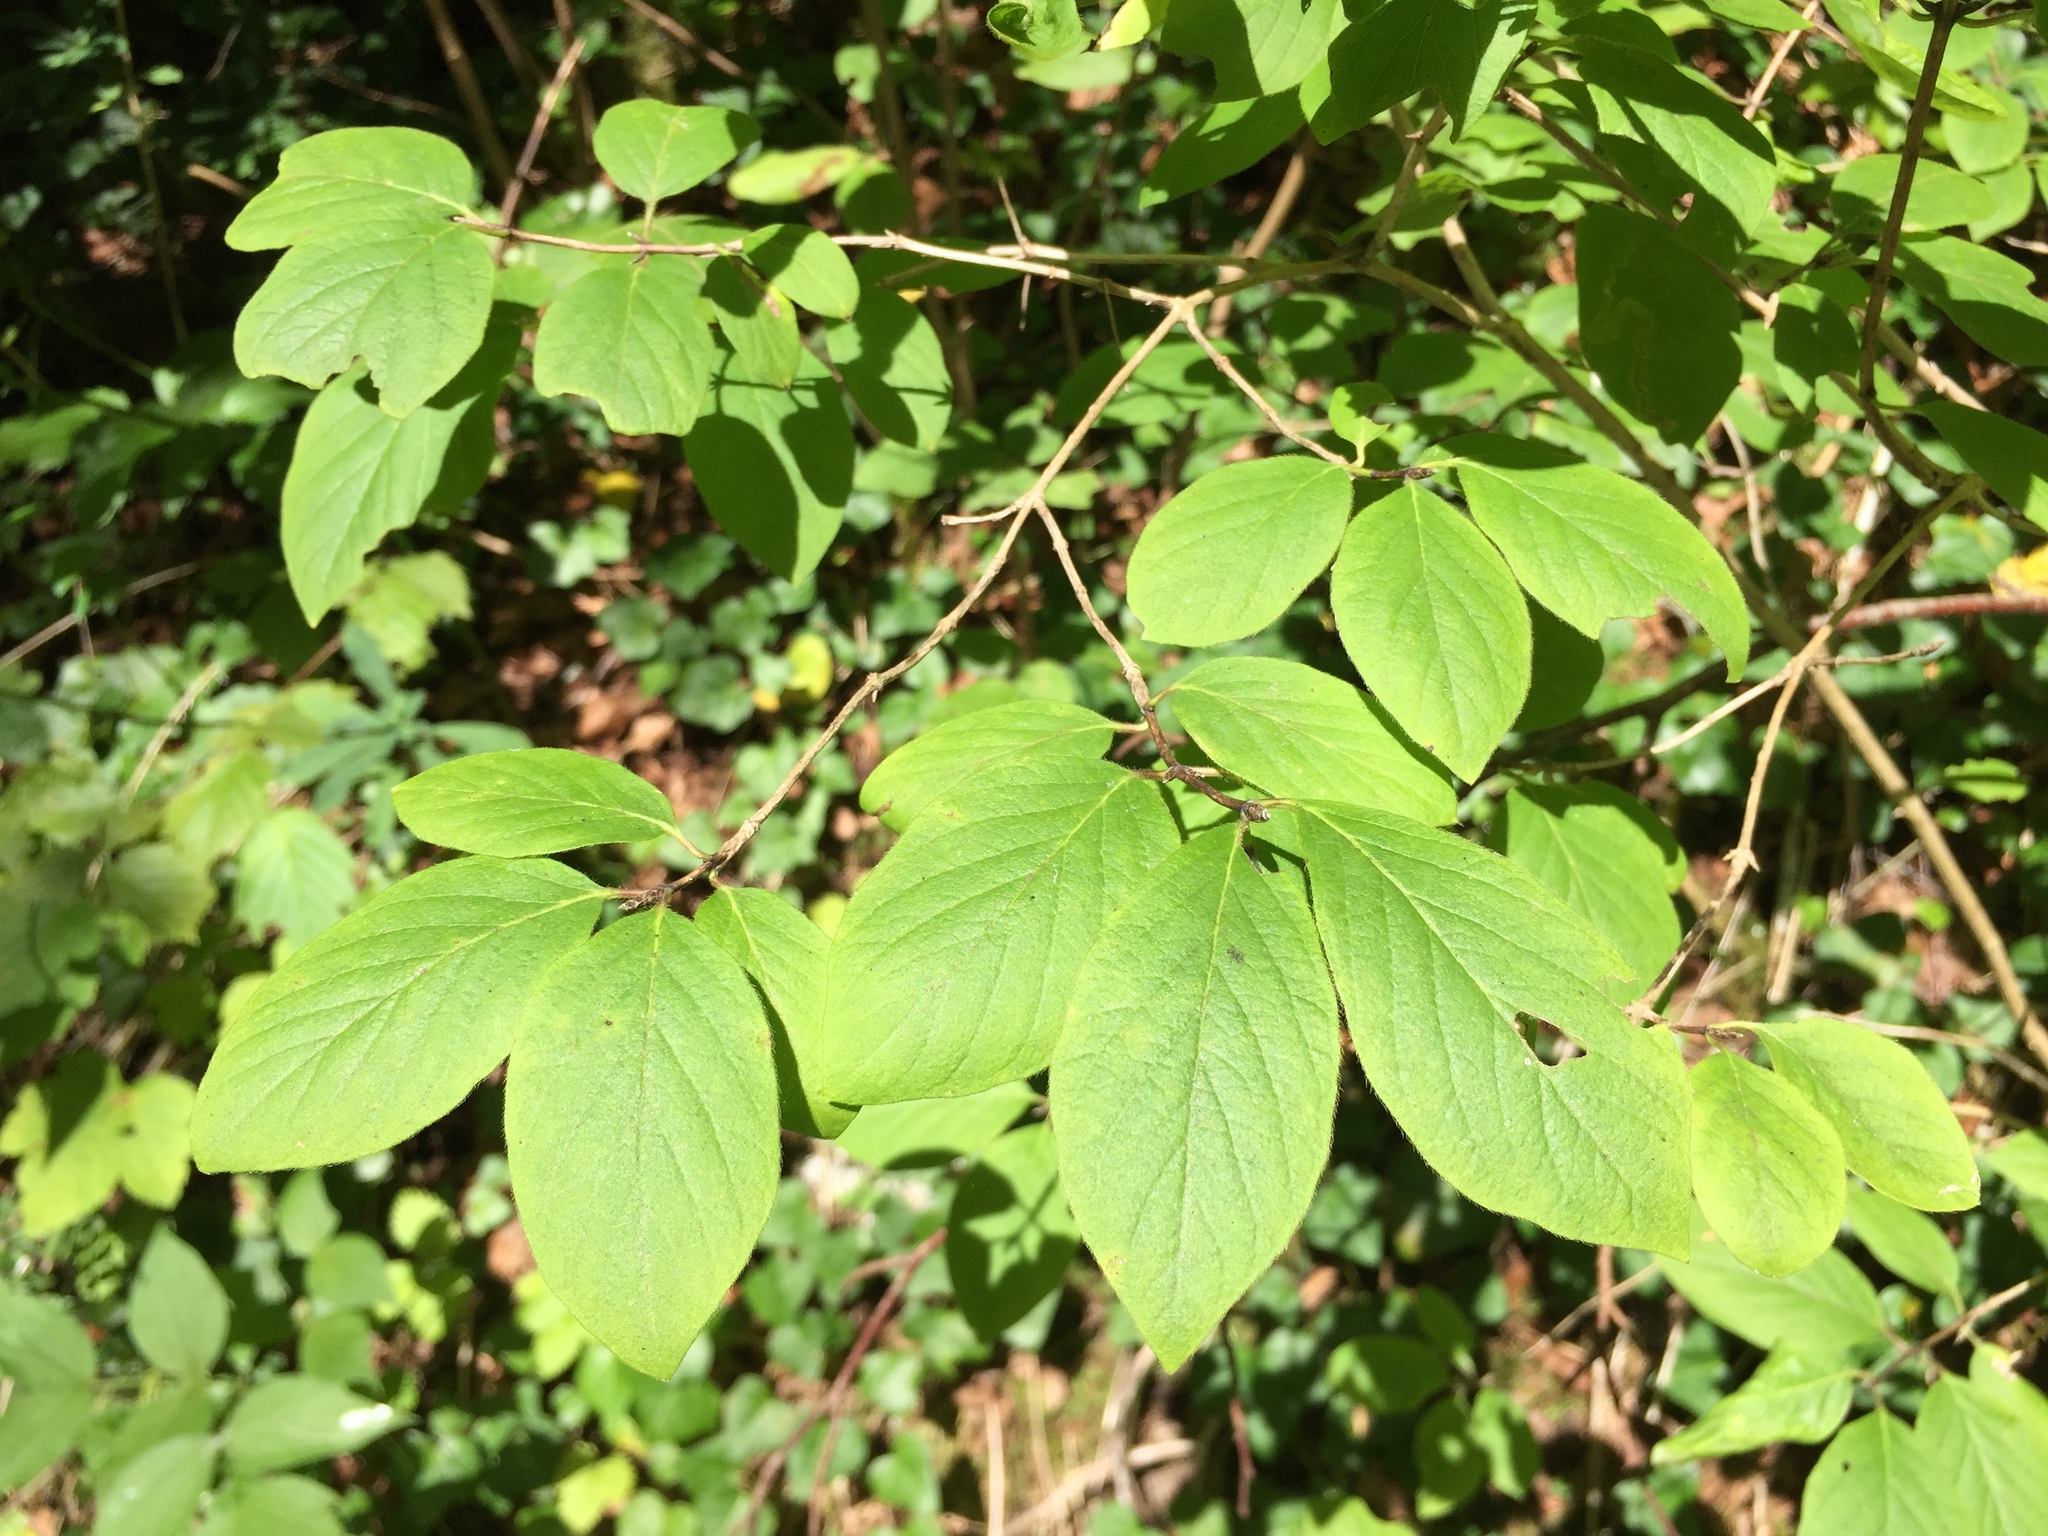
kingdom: Plantae
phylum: Tracheophyta
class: Magnoliopsida
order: Dipsacales
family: Caprifoliaceae
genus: Lonicera
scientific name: Lonicera xylosteum
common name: Fly honeysuckle
